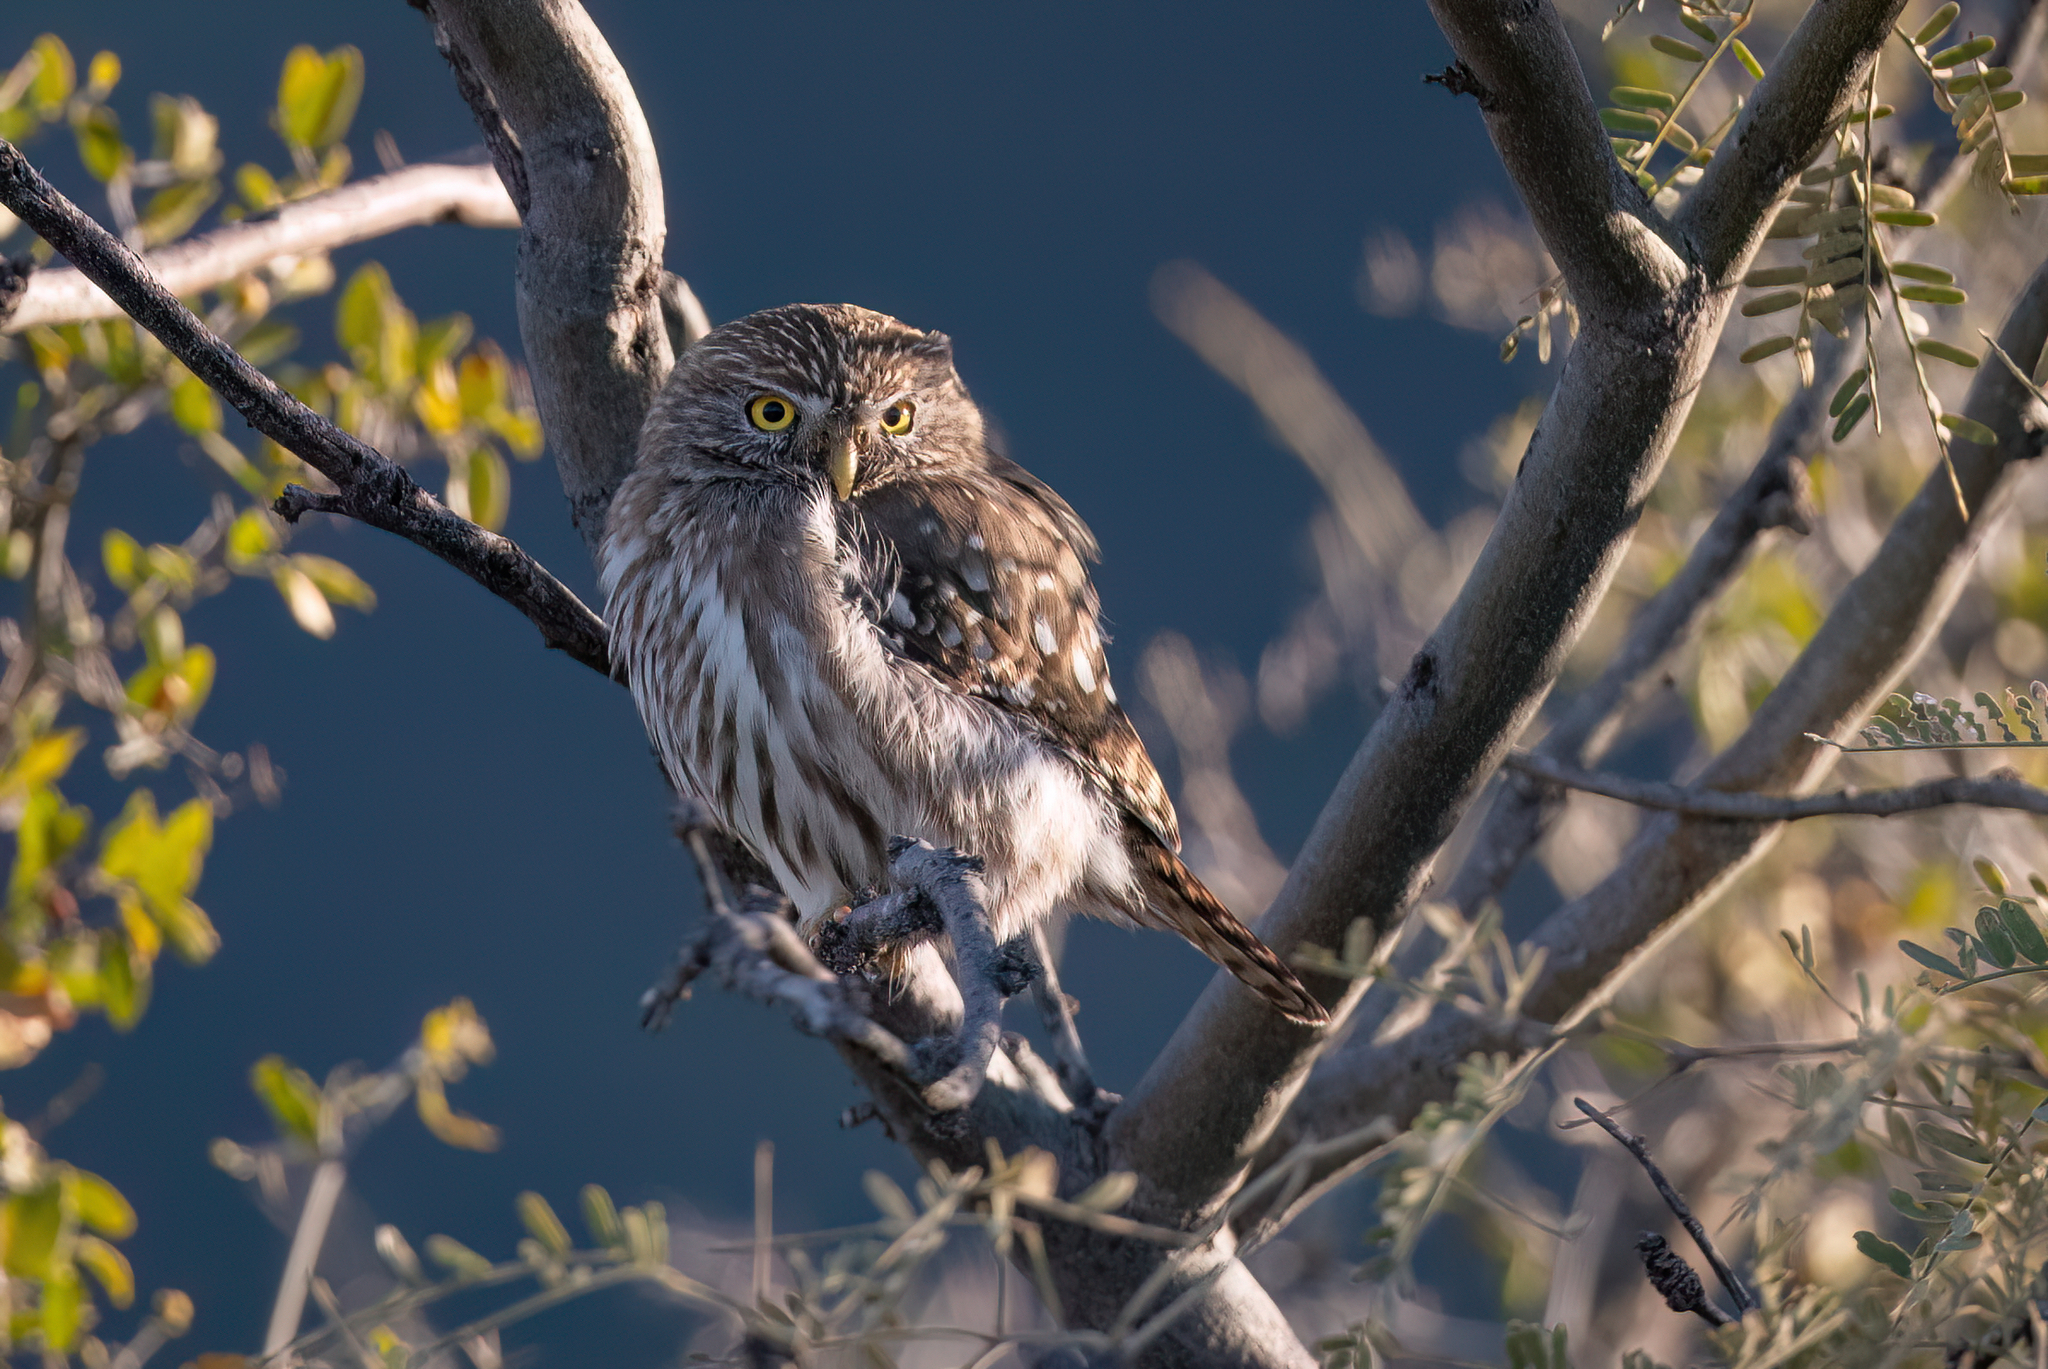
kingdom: Animalia
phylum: Chordata
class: Aves
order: Strigiformes
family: Strigidae
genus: Glaucidium
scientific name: Glaucidium brasilianum
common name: Ferruginous pygmy-owl
